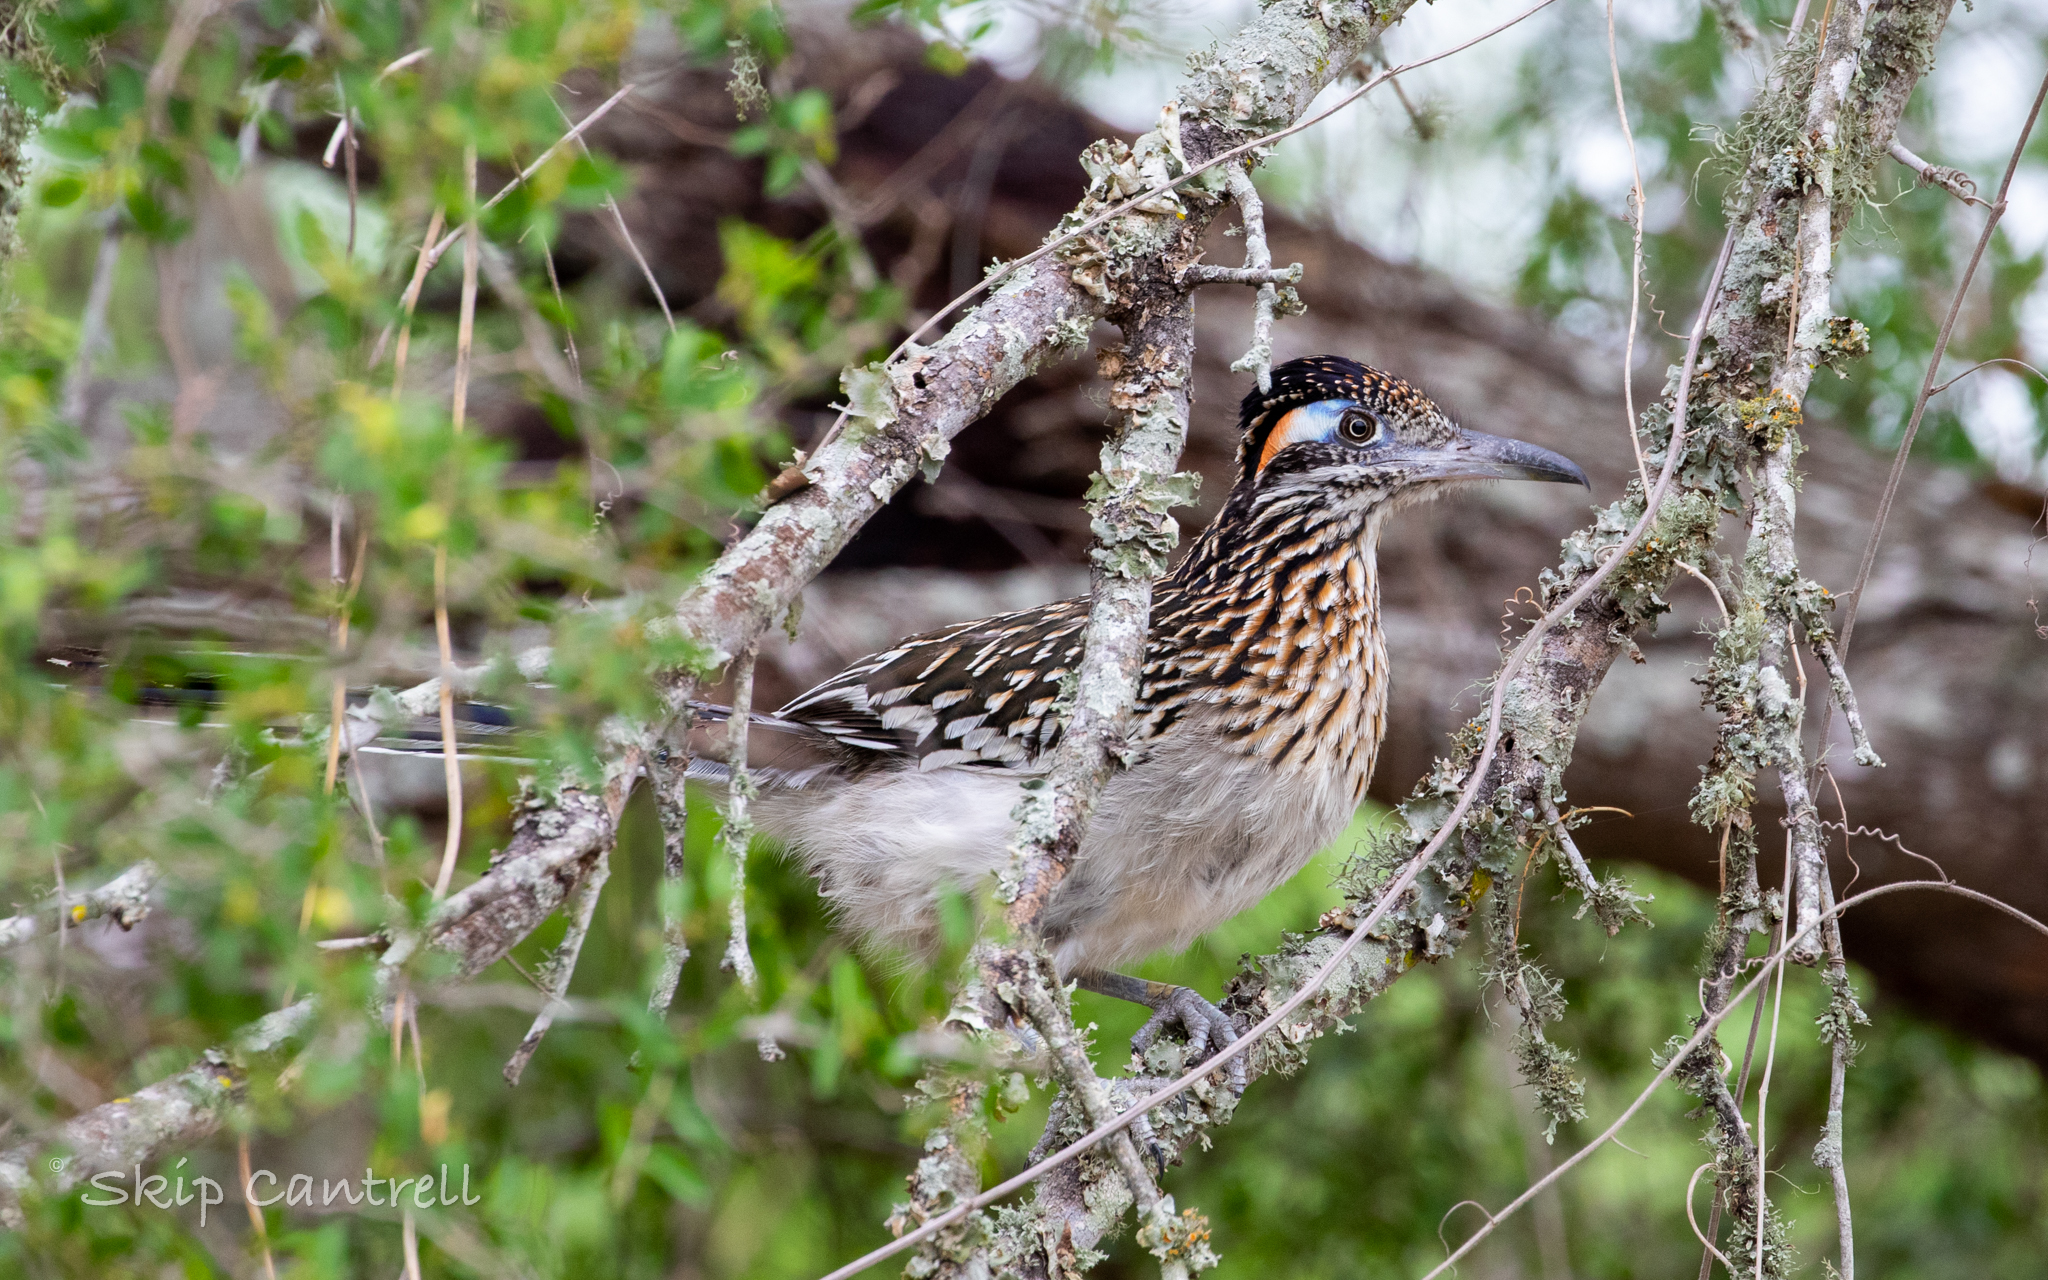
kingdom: Animalia
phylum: Chordata
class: Aves
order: Cuculiformes
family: Cuculidae
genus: Geococcyx
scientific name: Geococcyx californianus
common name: Greater roadrunner
